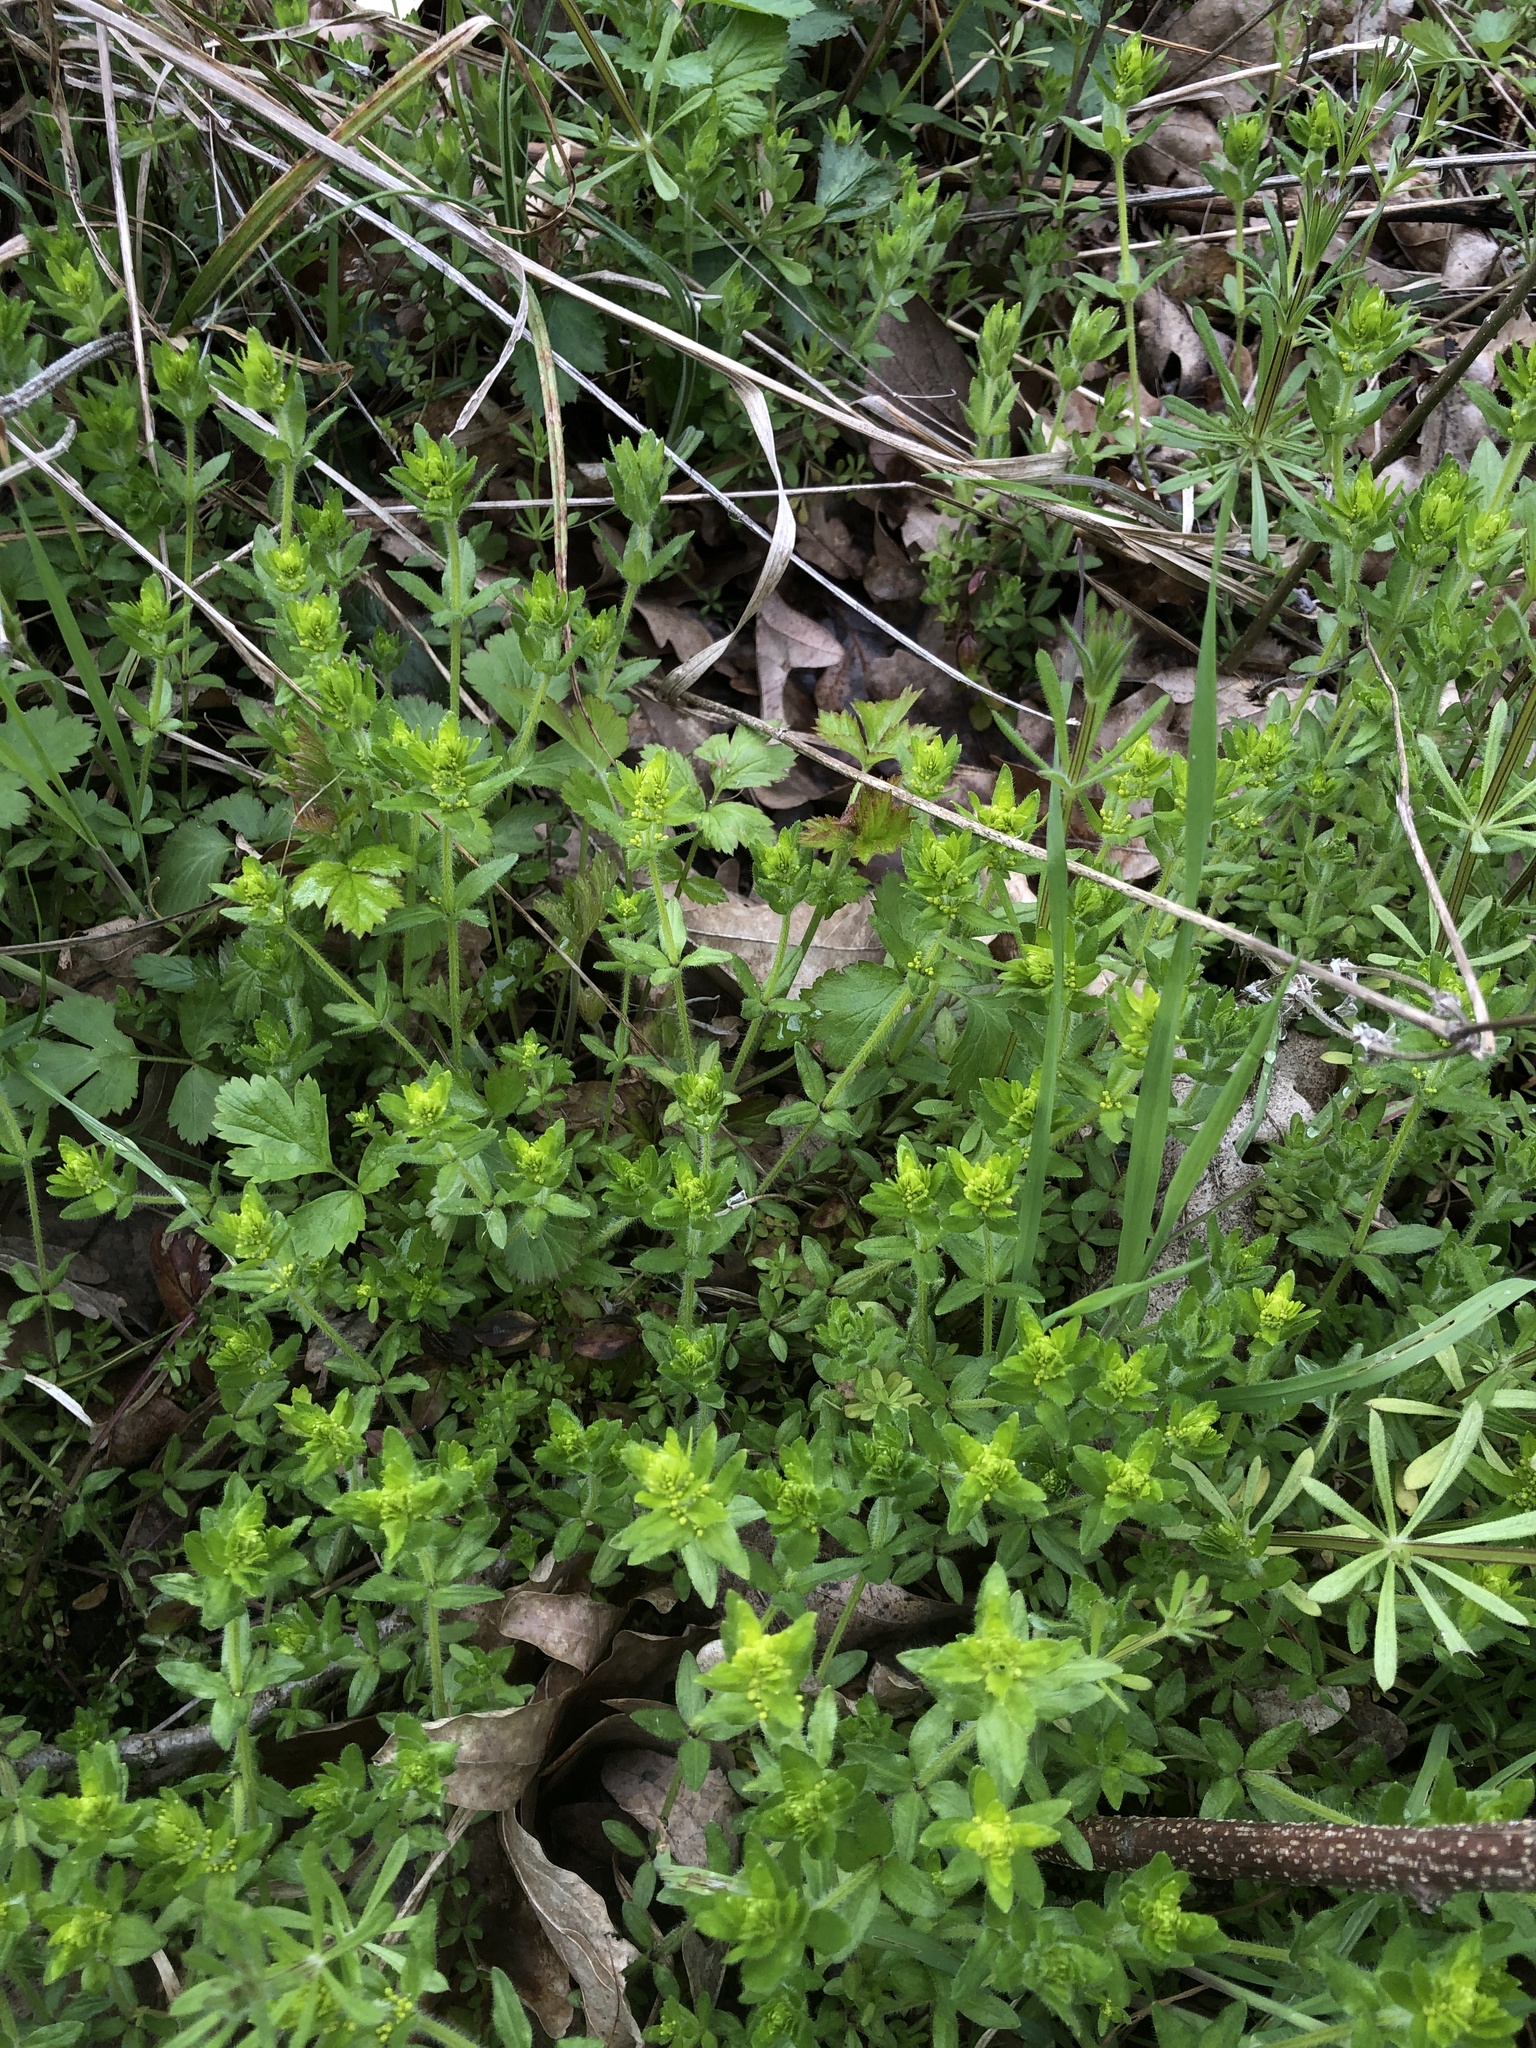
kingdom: Plantae
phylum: Tracheophyta
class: Magnoliopsida
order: Gentianales
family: Rubiaceae
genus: Cruciata
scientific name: Cruciata laevipes
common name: Crosswort
